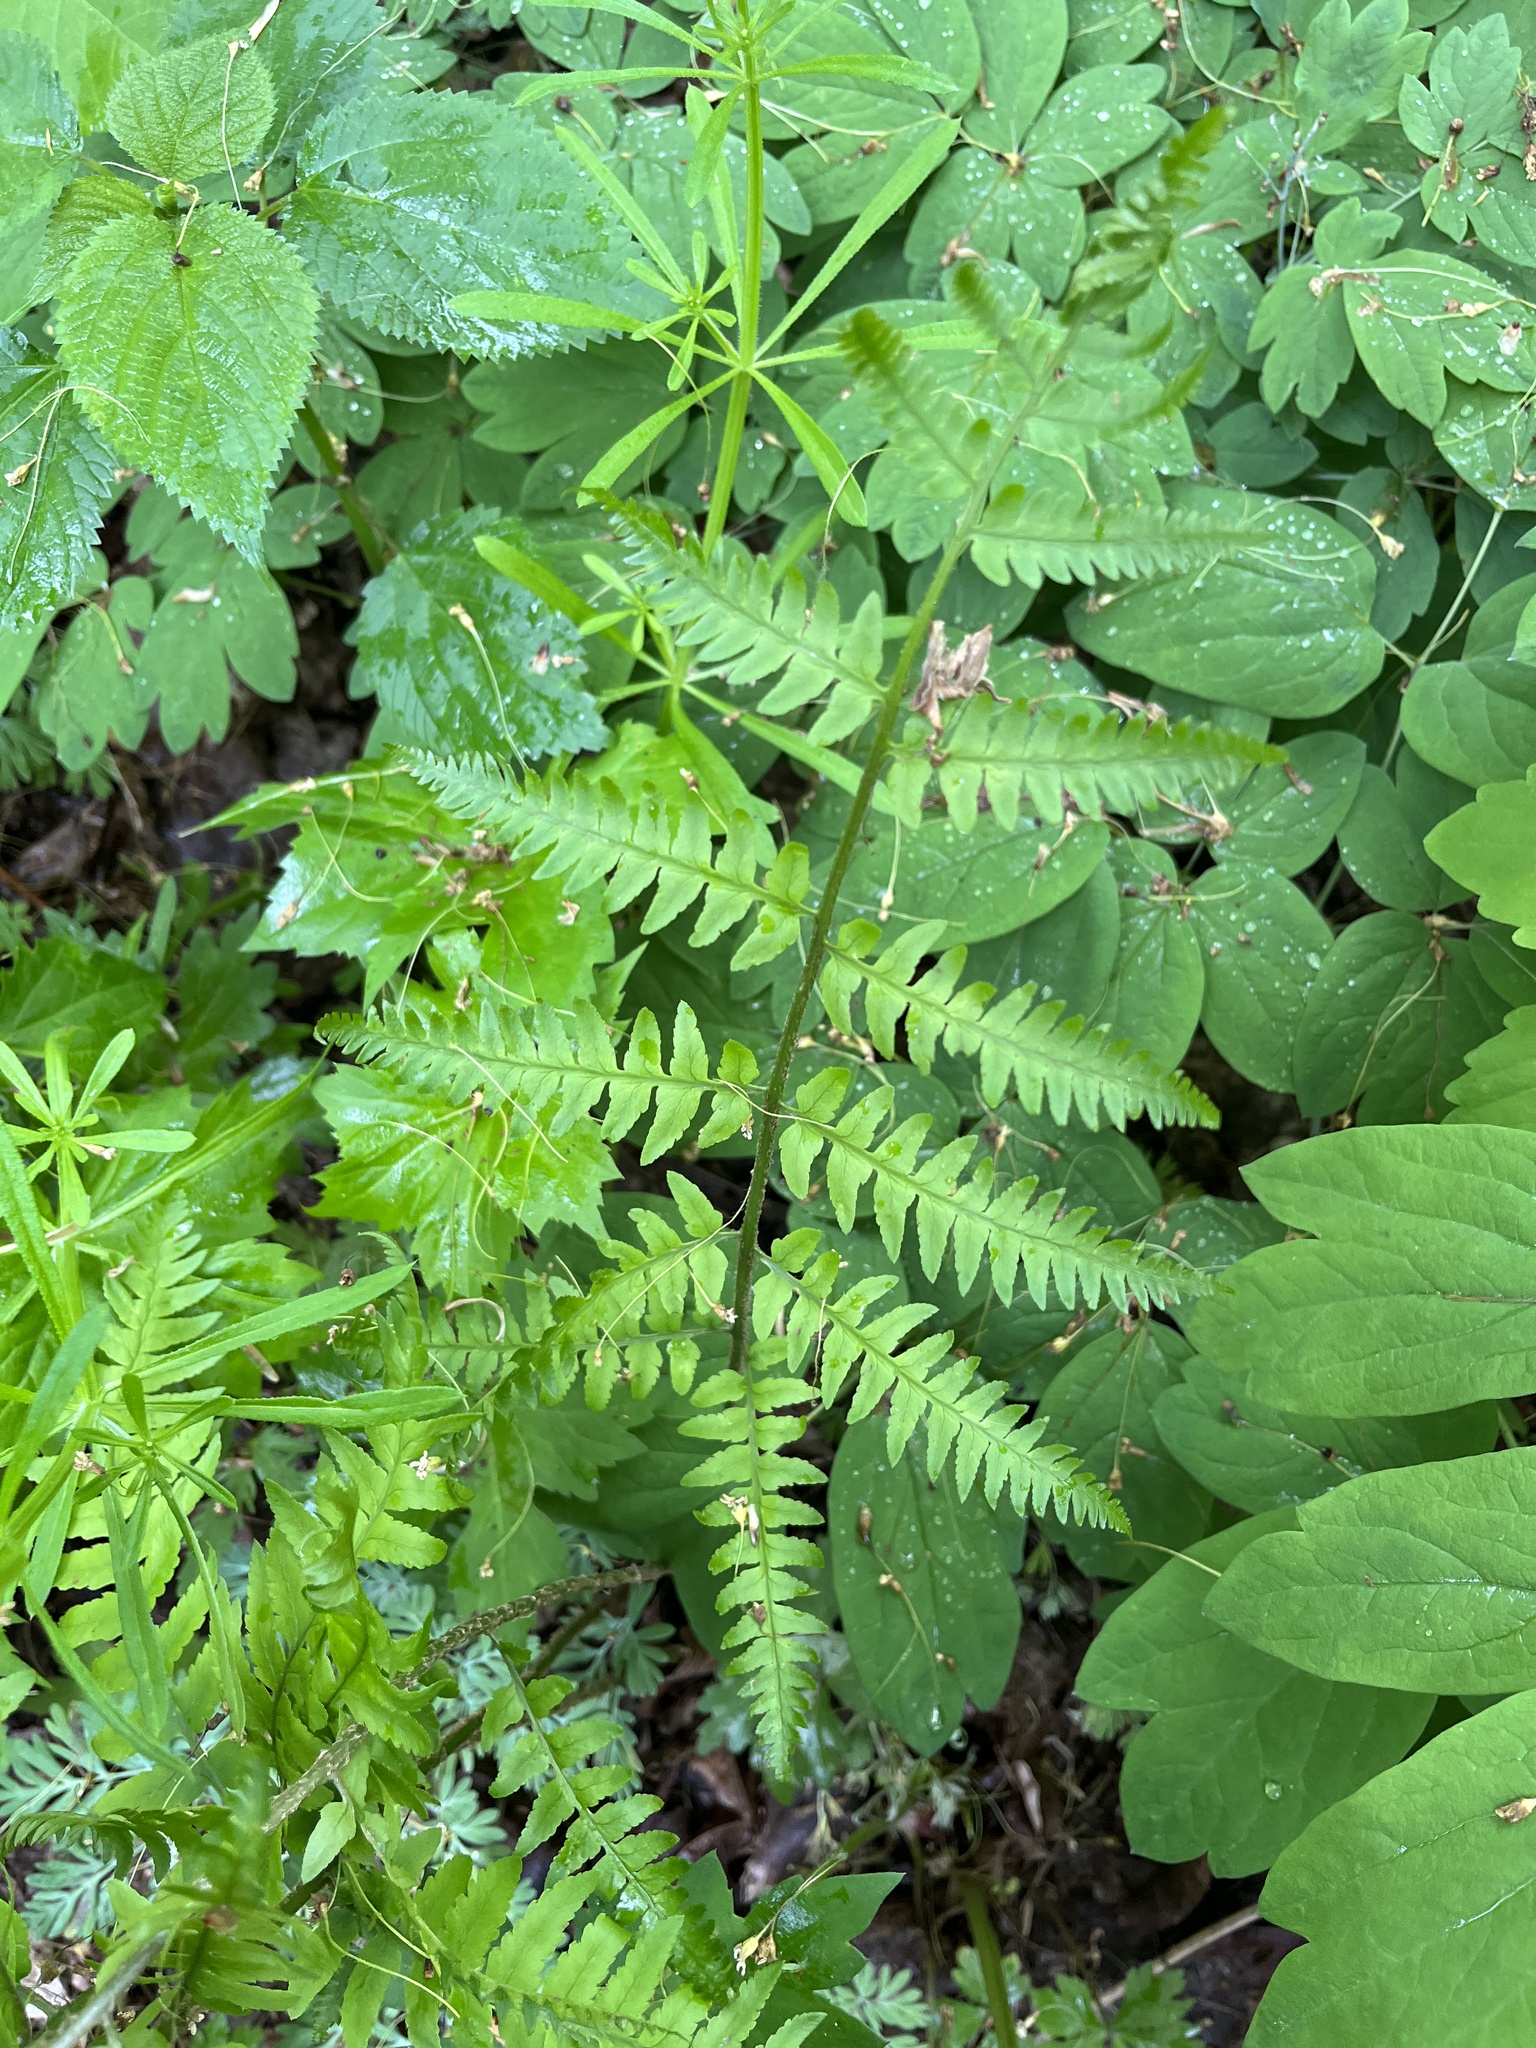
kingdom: Plantae
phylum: Tracheophyta
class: Polypodiopsida
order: Polypodiales
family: Dryopteridaceae
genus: Dryopteris
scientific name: Dryopteris goldieana
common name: Goldie's fern
